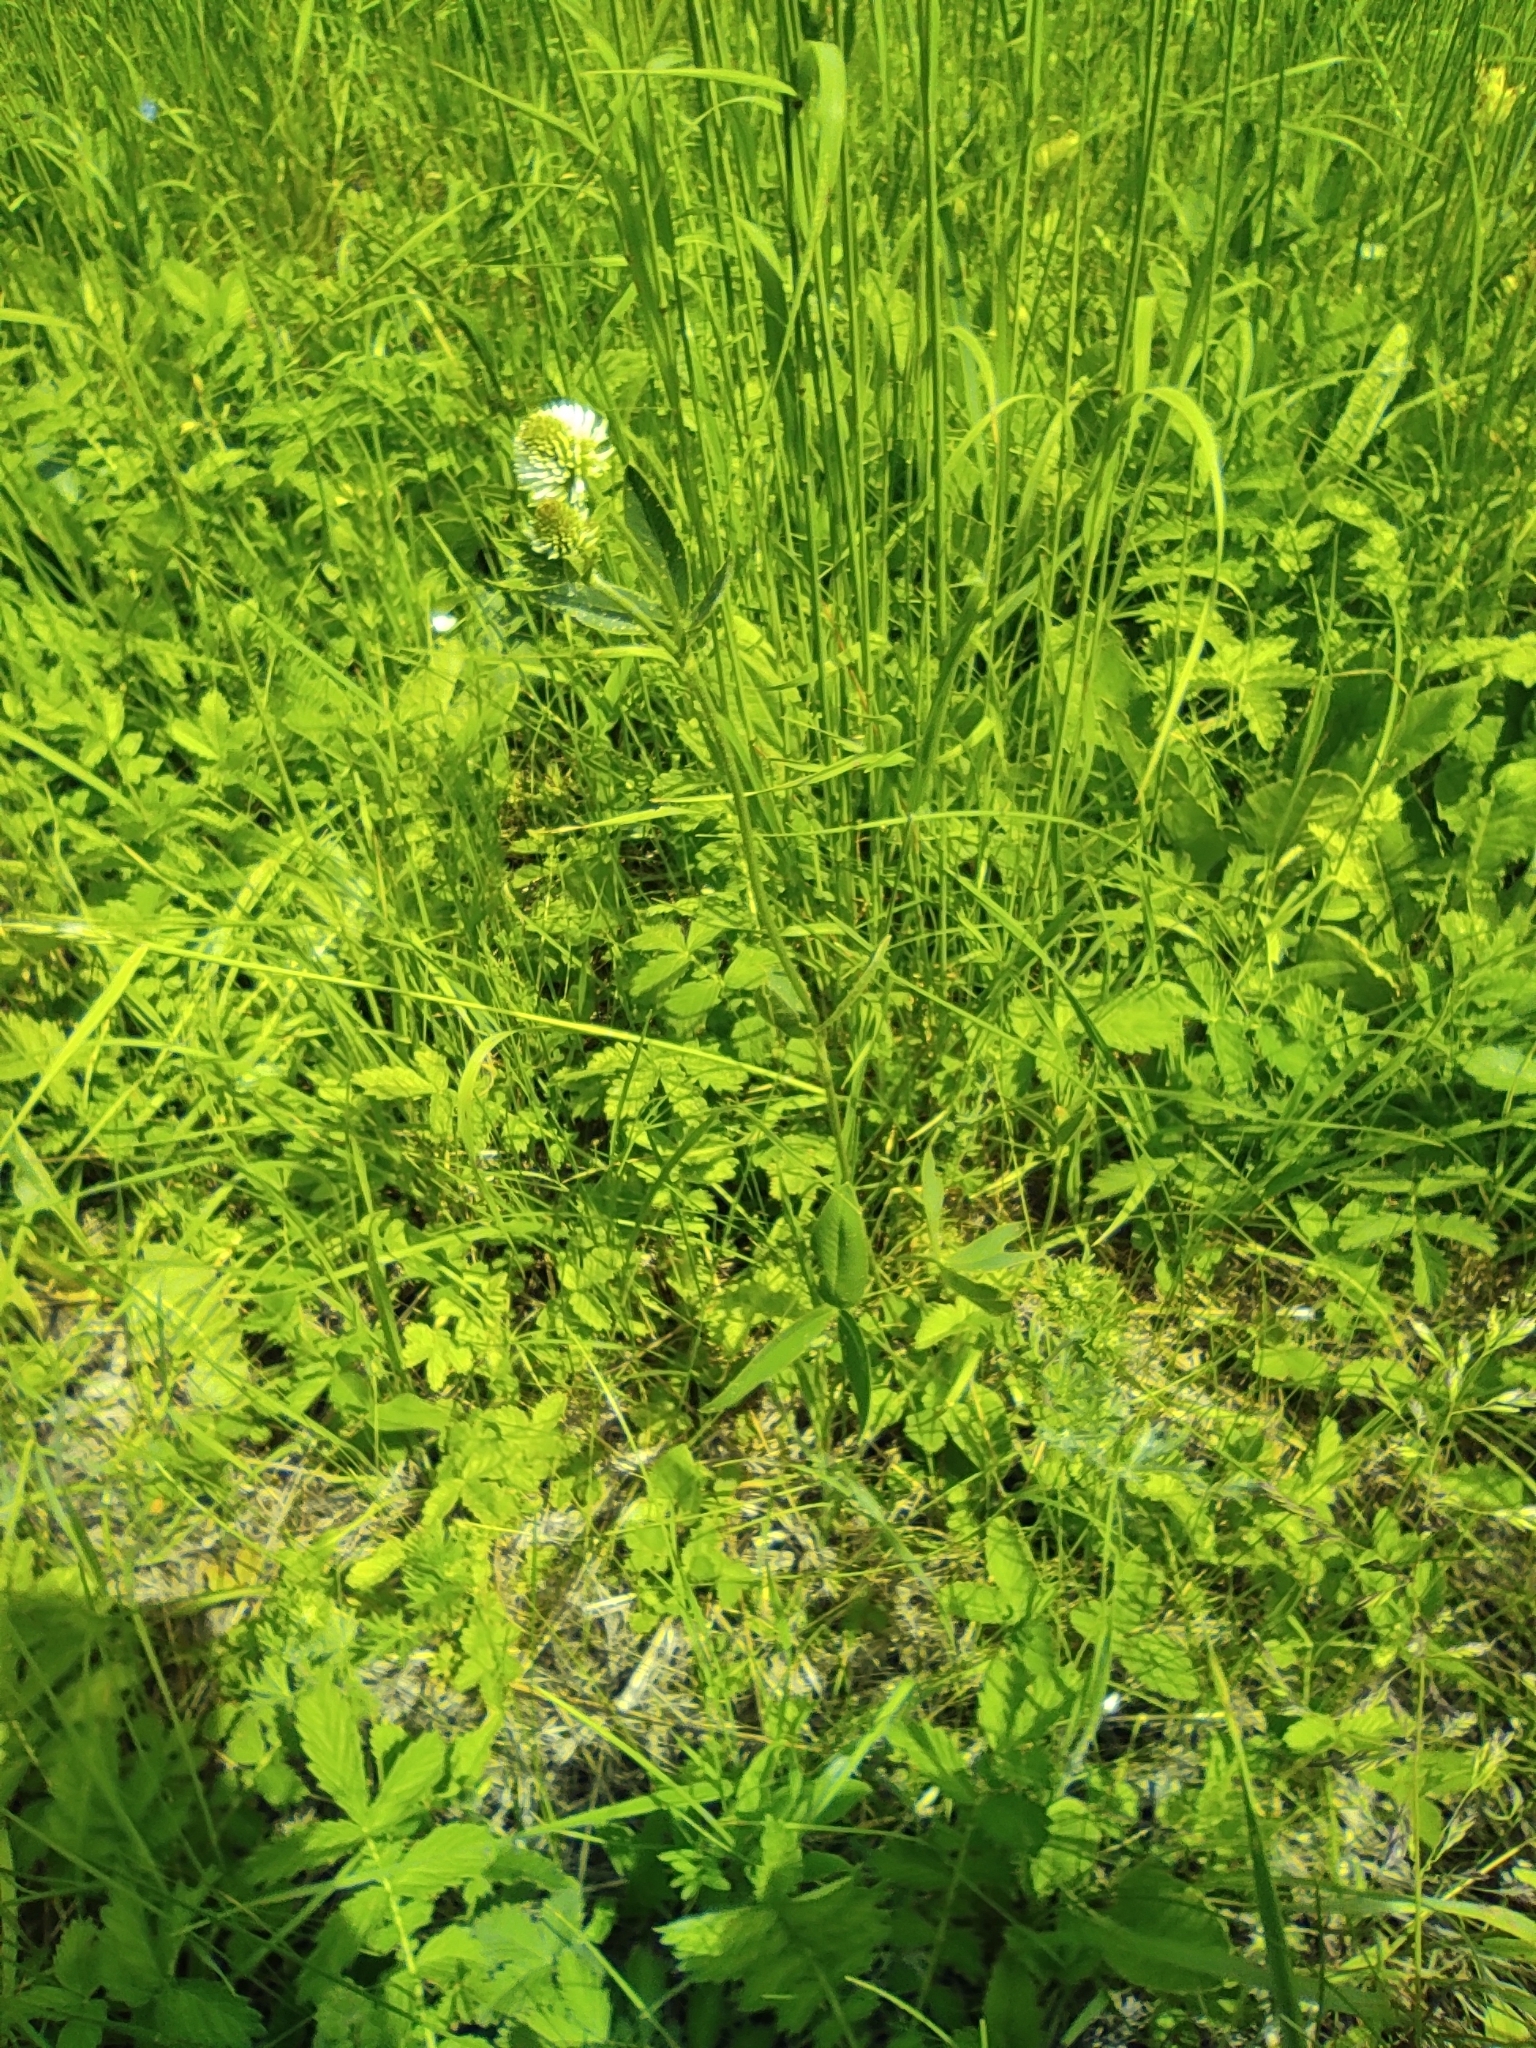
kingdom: Plantae
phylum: Tracheophyta
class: Magnoliopsida
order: Fabales
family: Fabaceae
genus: Trifolium
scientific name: Trifolium montanum
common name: Mountain clover
